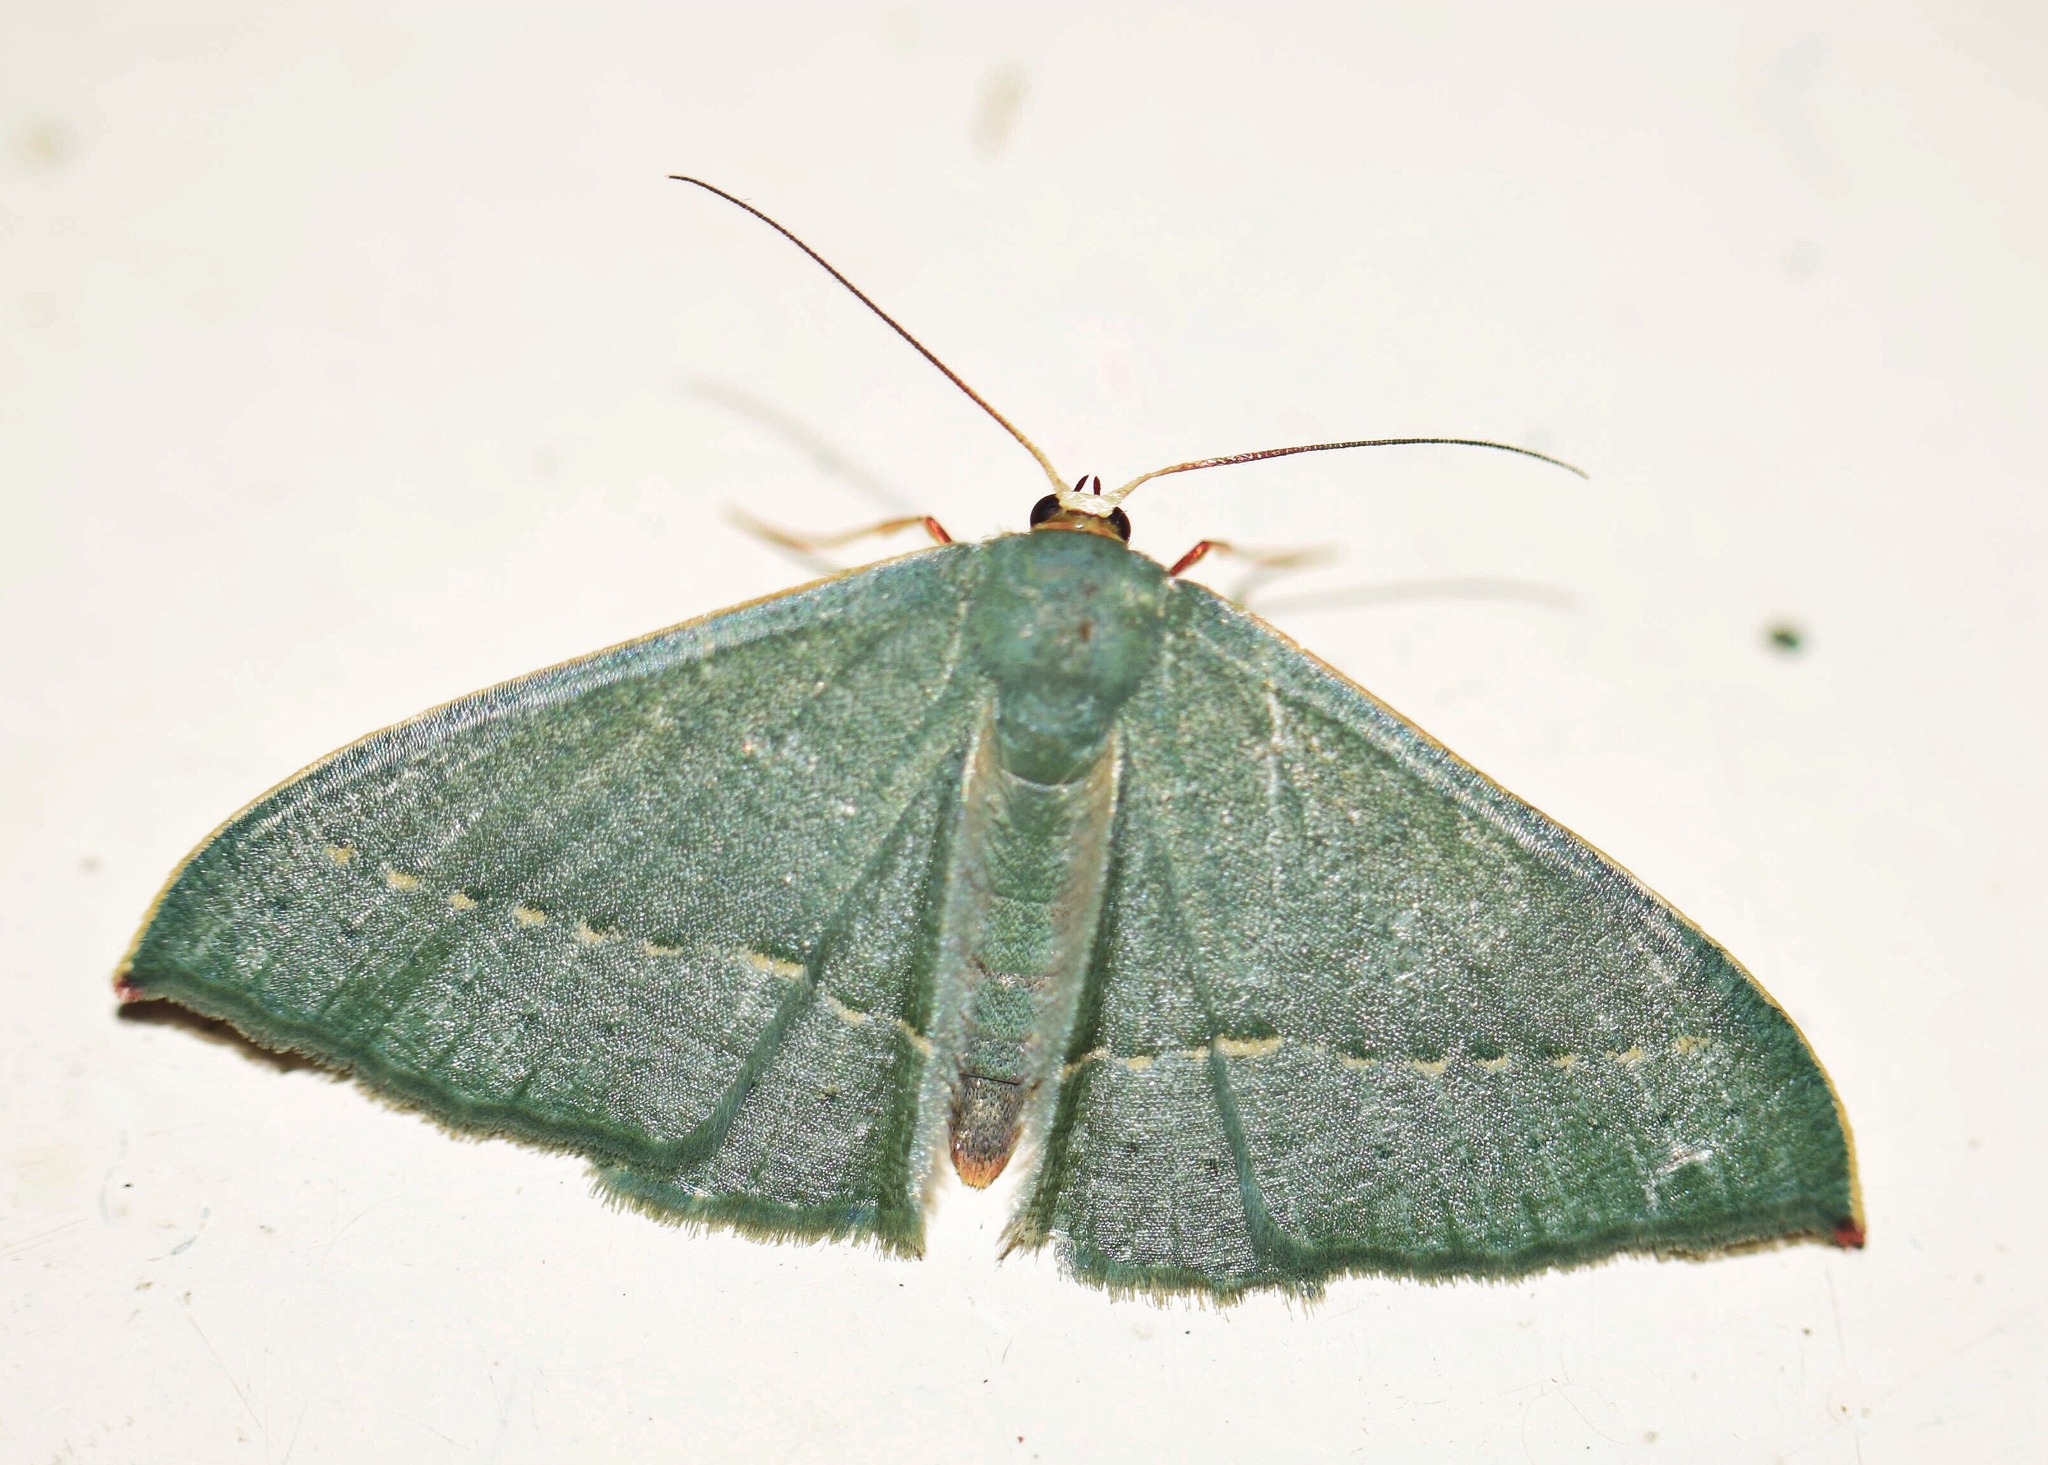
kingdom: Animalia
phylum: Arthropoda
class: Insecta
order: Lepidoptera
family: Geometridae
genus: Traminda
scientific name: Traminda obversata
